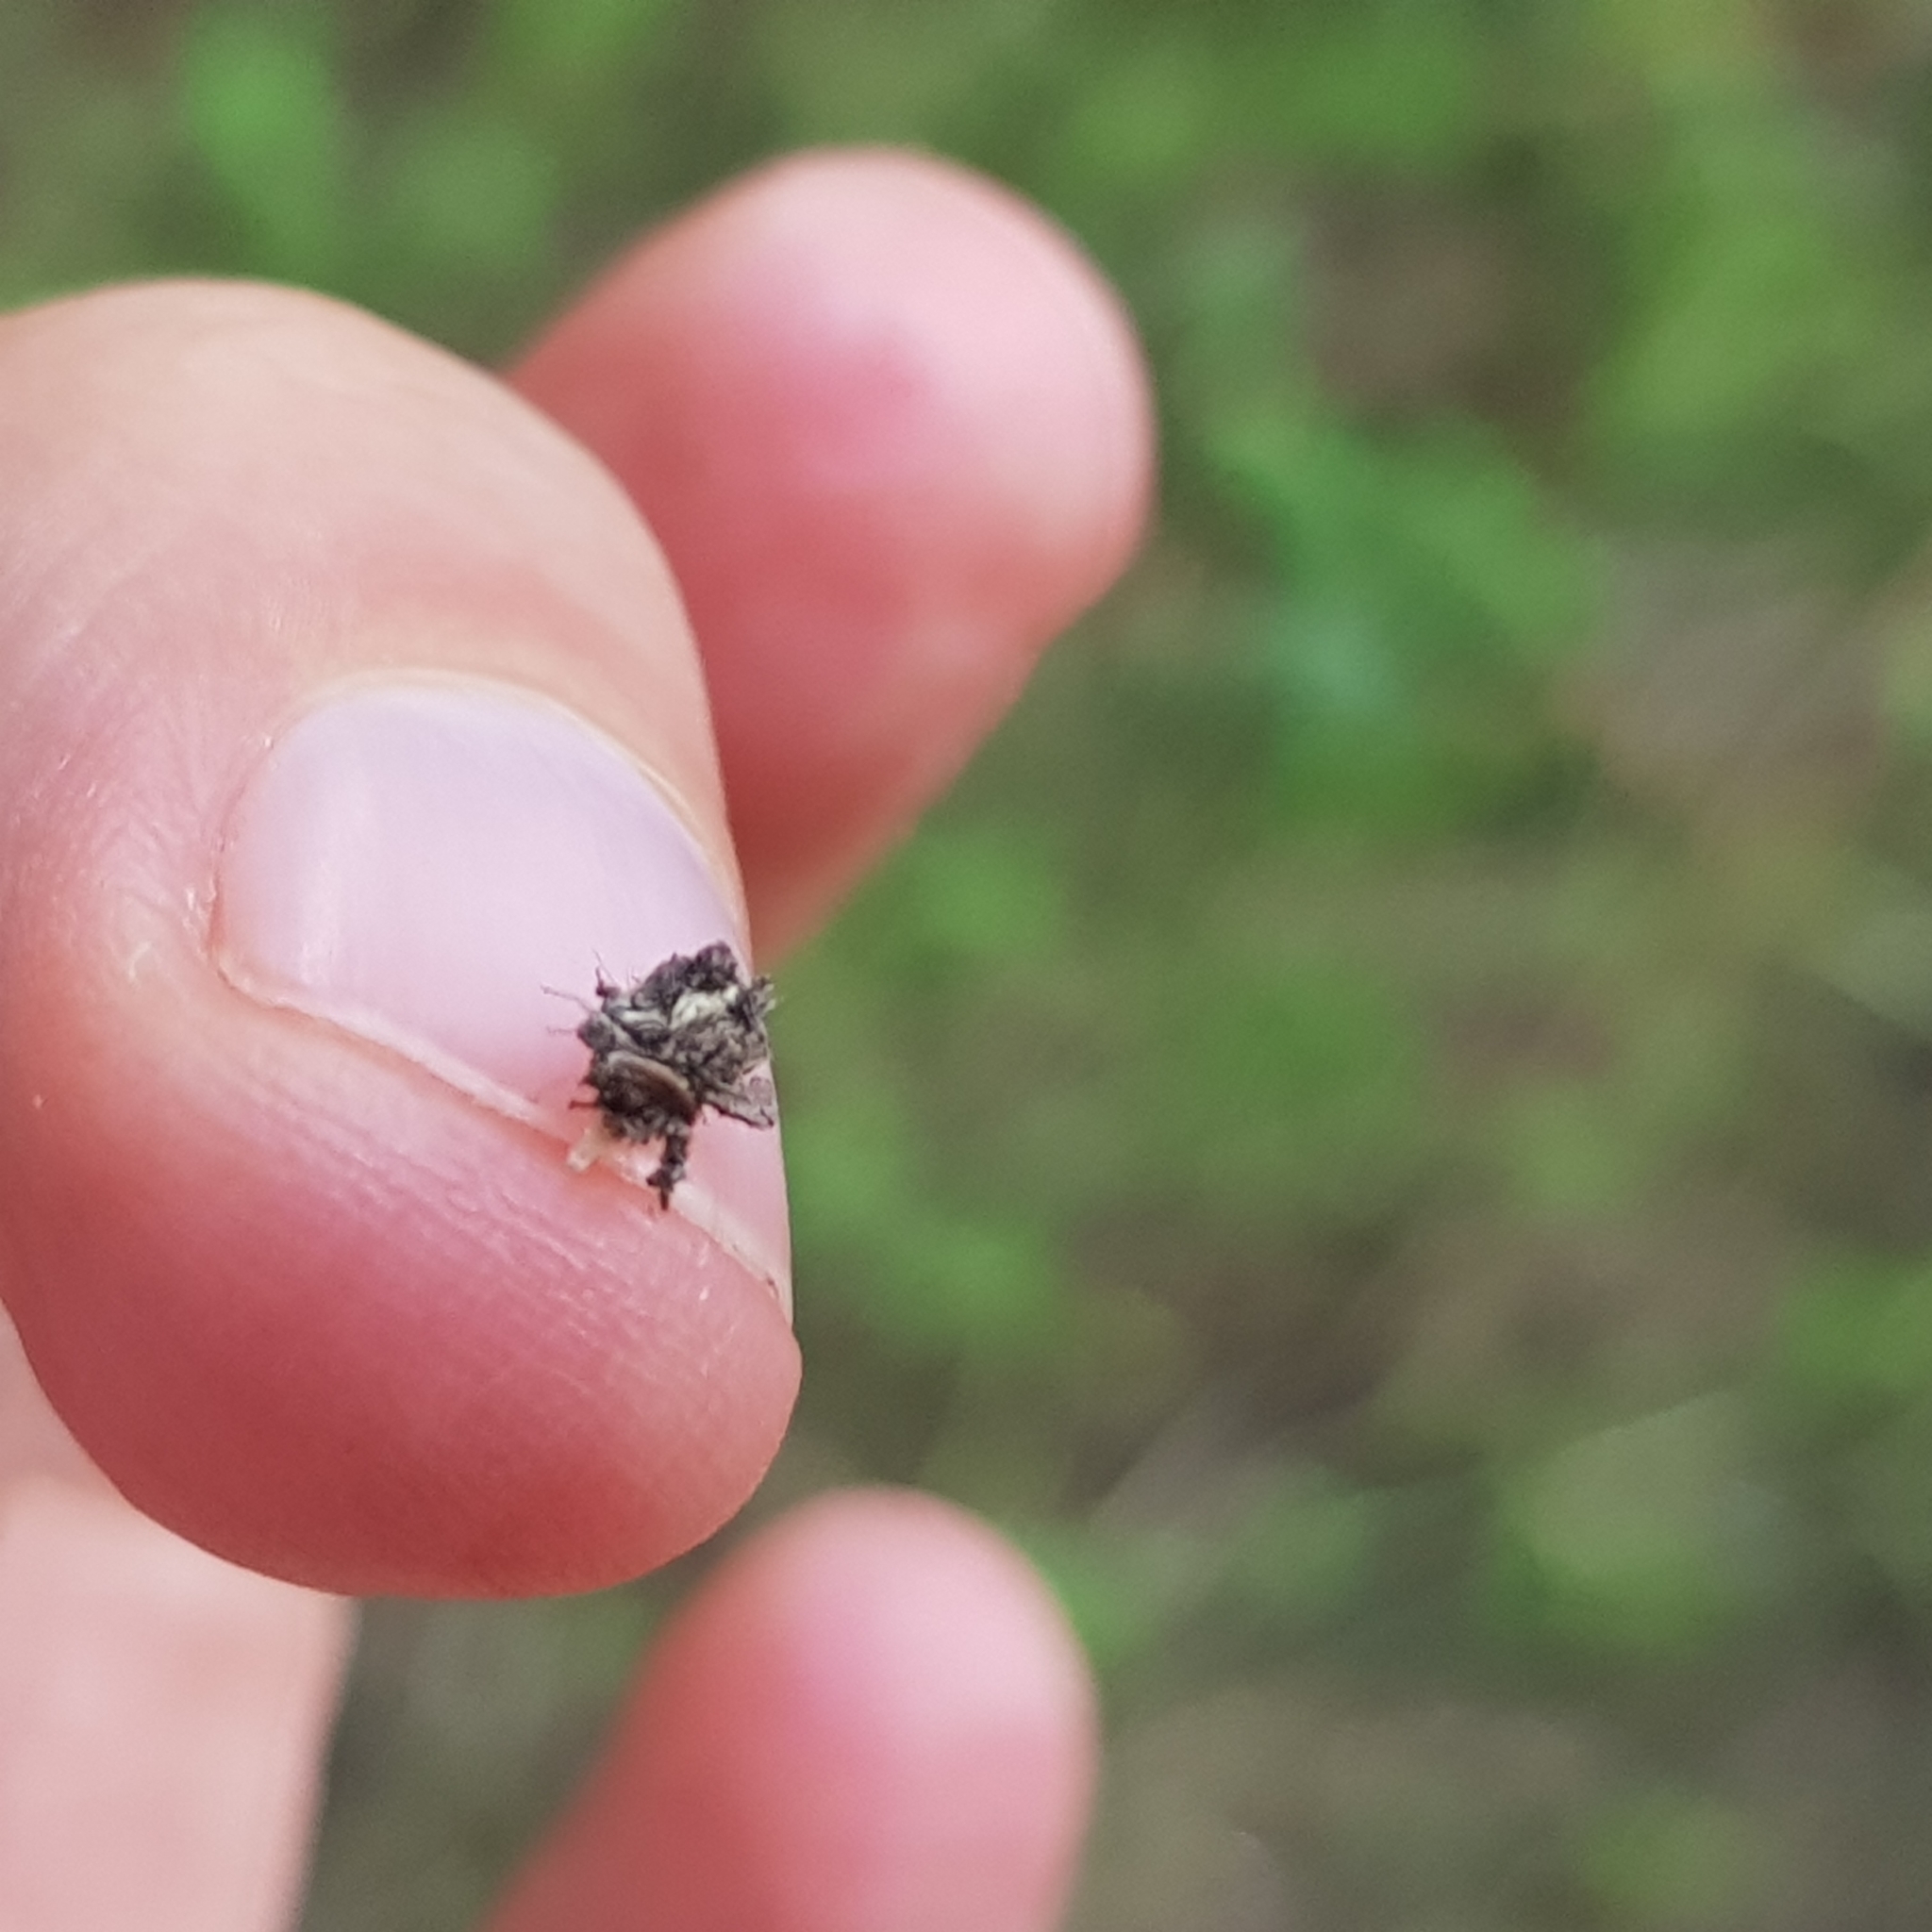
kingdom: Animalia
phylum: Arthropoda
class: Insecta
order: Neuroptera
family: Chrysopidae
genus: Mallada
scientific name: Mallada basalis
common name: Green lacewing
